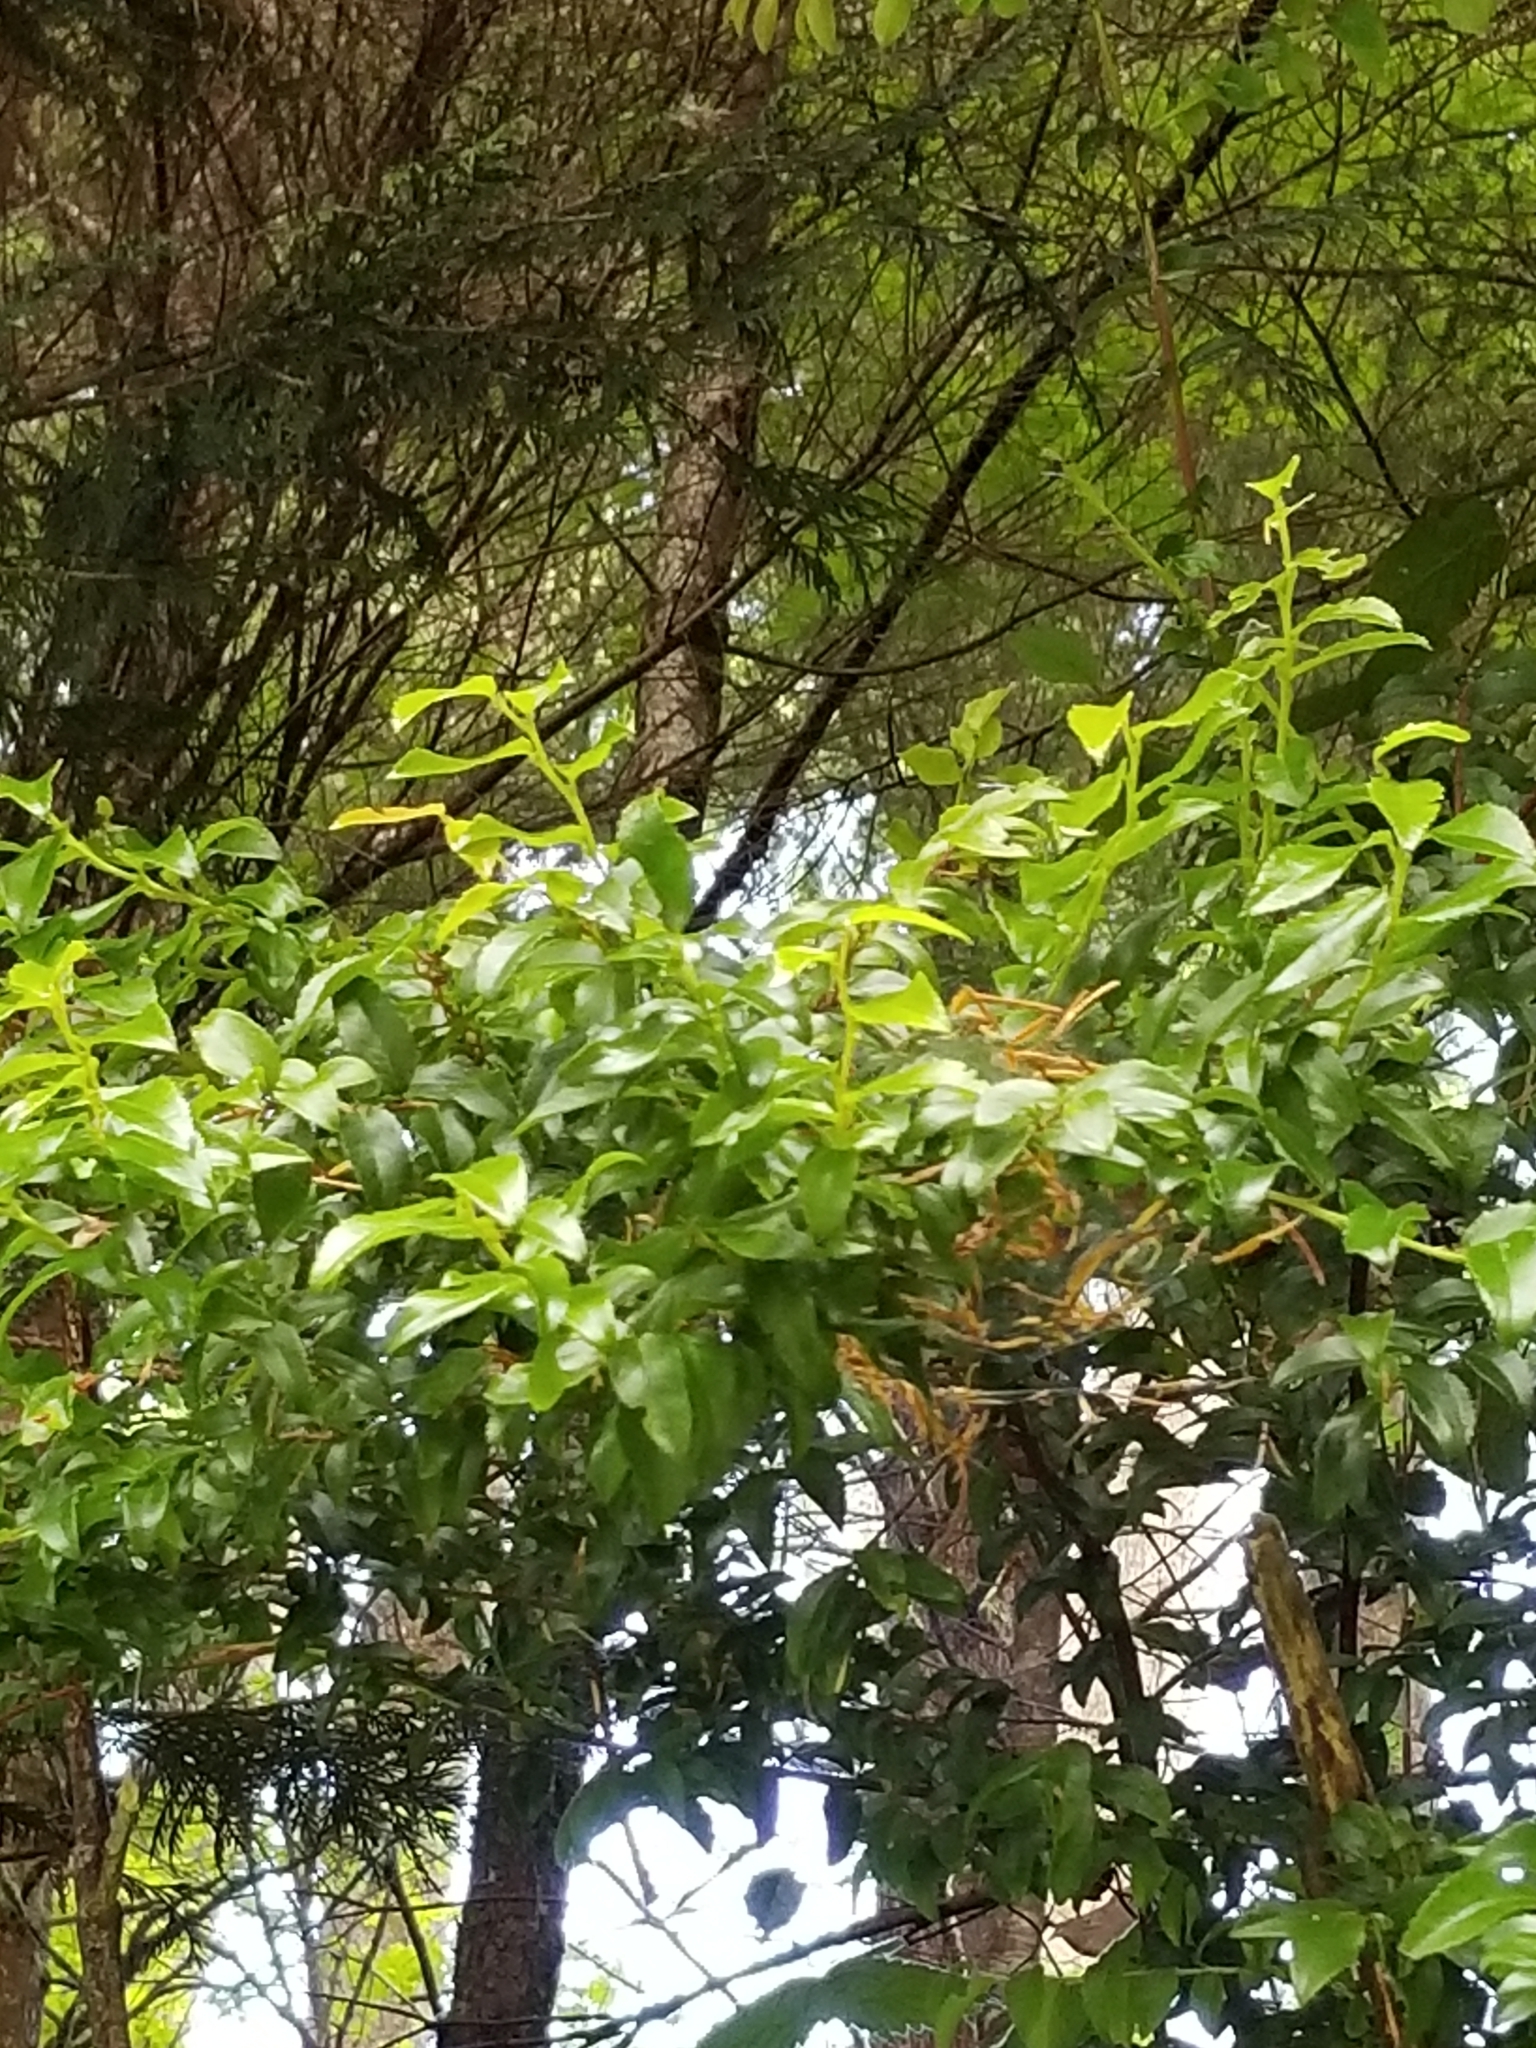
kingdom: Plantae
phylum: Tracheophyta
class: Magnoliopsida
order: Ericales
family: Ericaceae
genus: Vaccinium
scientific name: Vaccinium ovatum
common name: California-huckleberry
